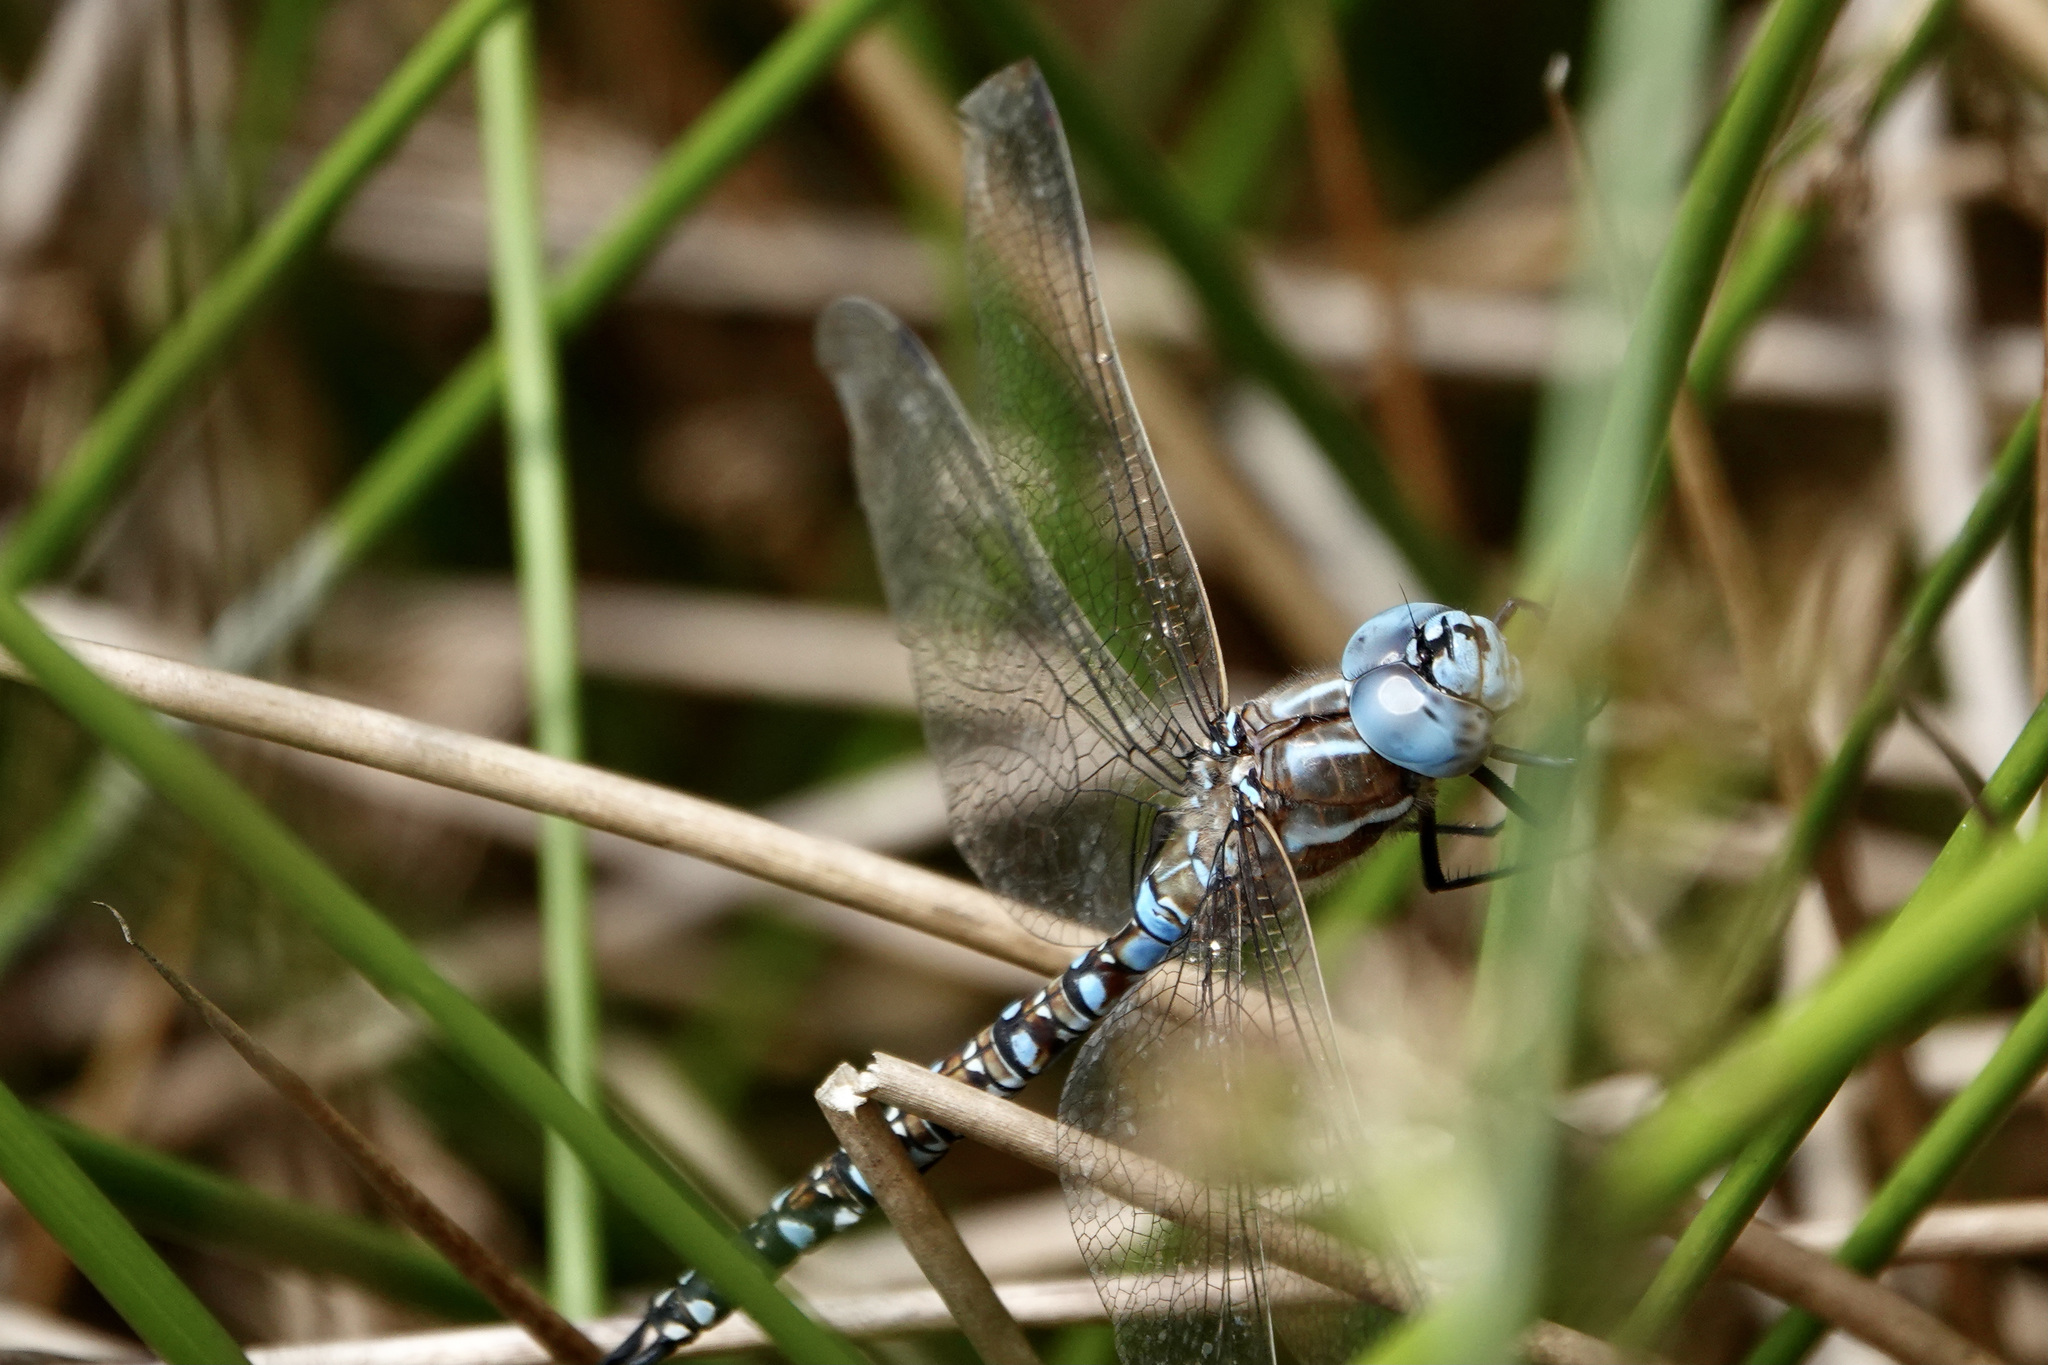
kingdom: Animalia
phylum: Arthropoda
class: Insecta
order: Odonata
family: Aeshnidae
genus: Rhionaeschna
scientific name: Rhionaeschna multicolor
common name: Blue-eyed darner
